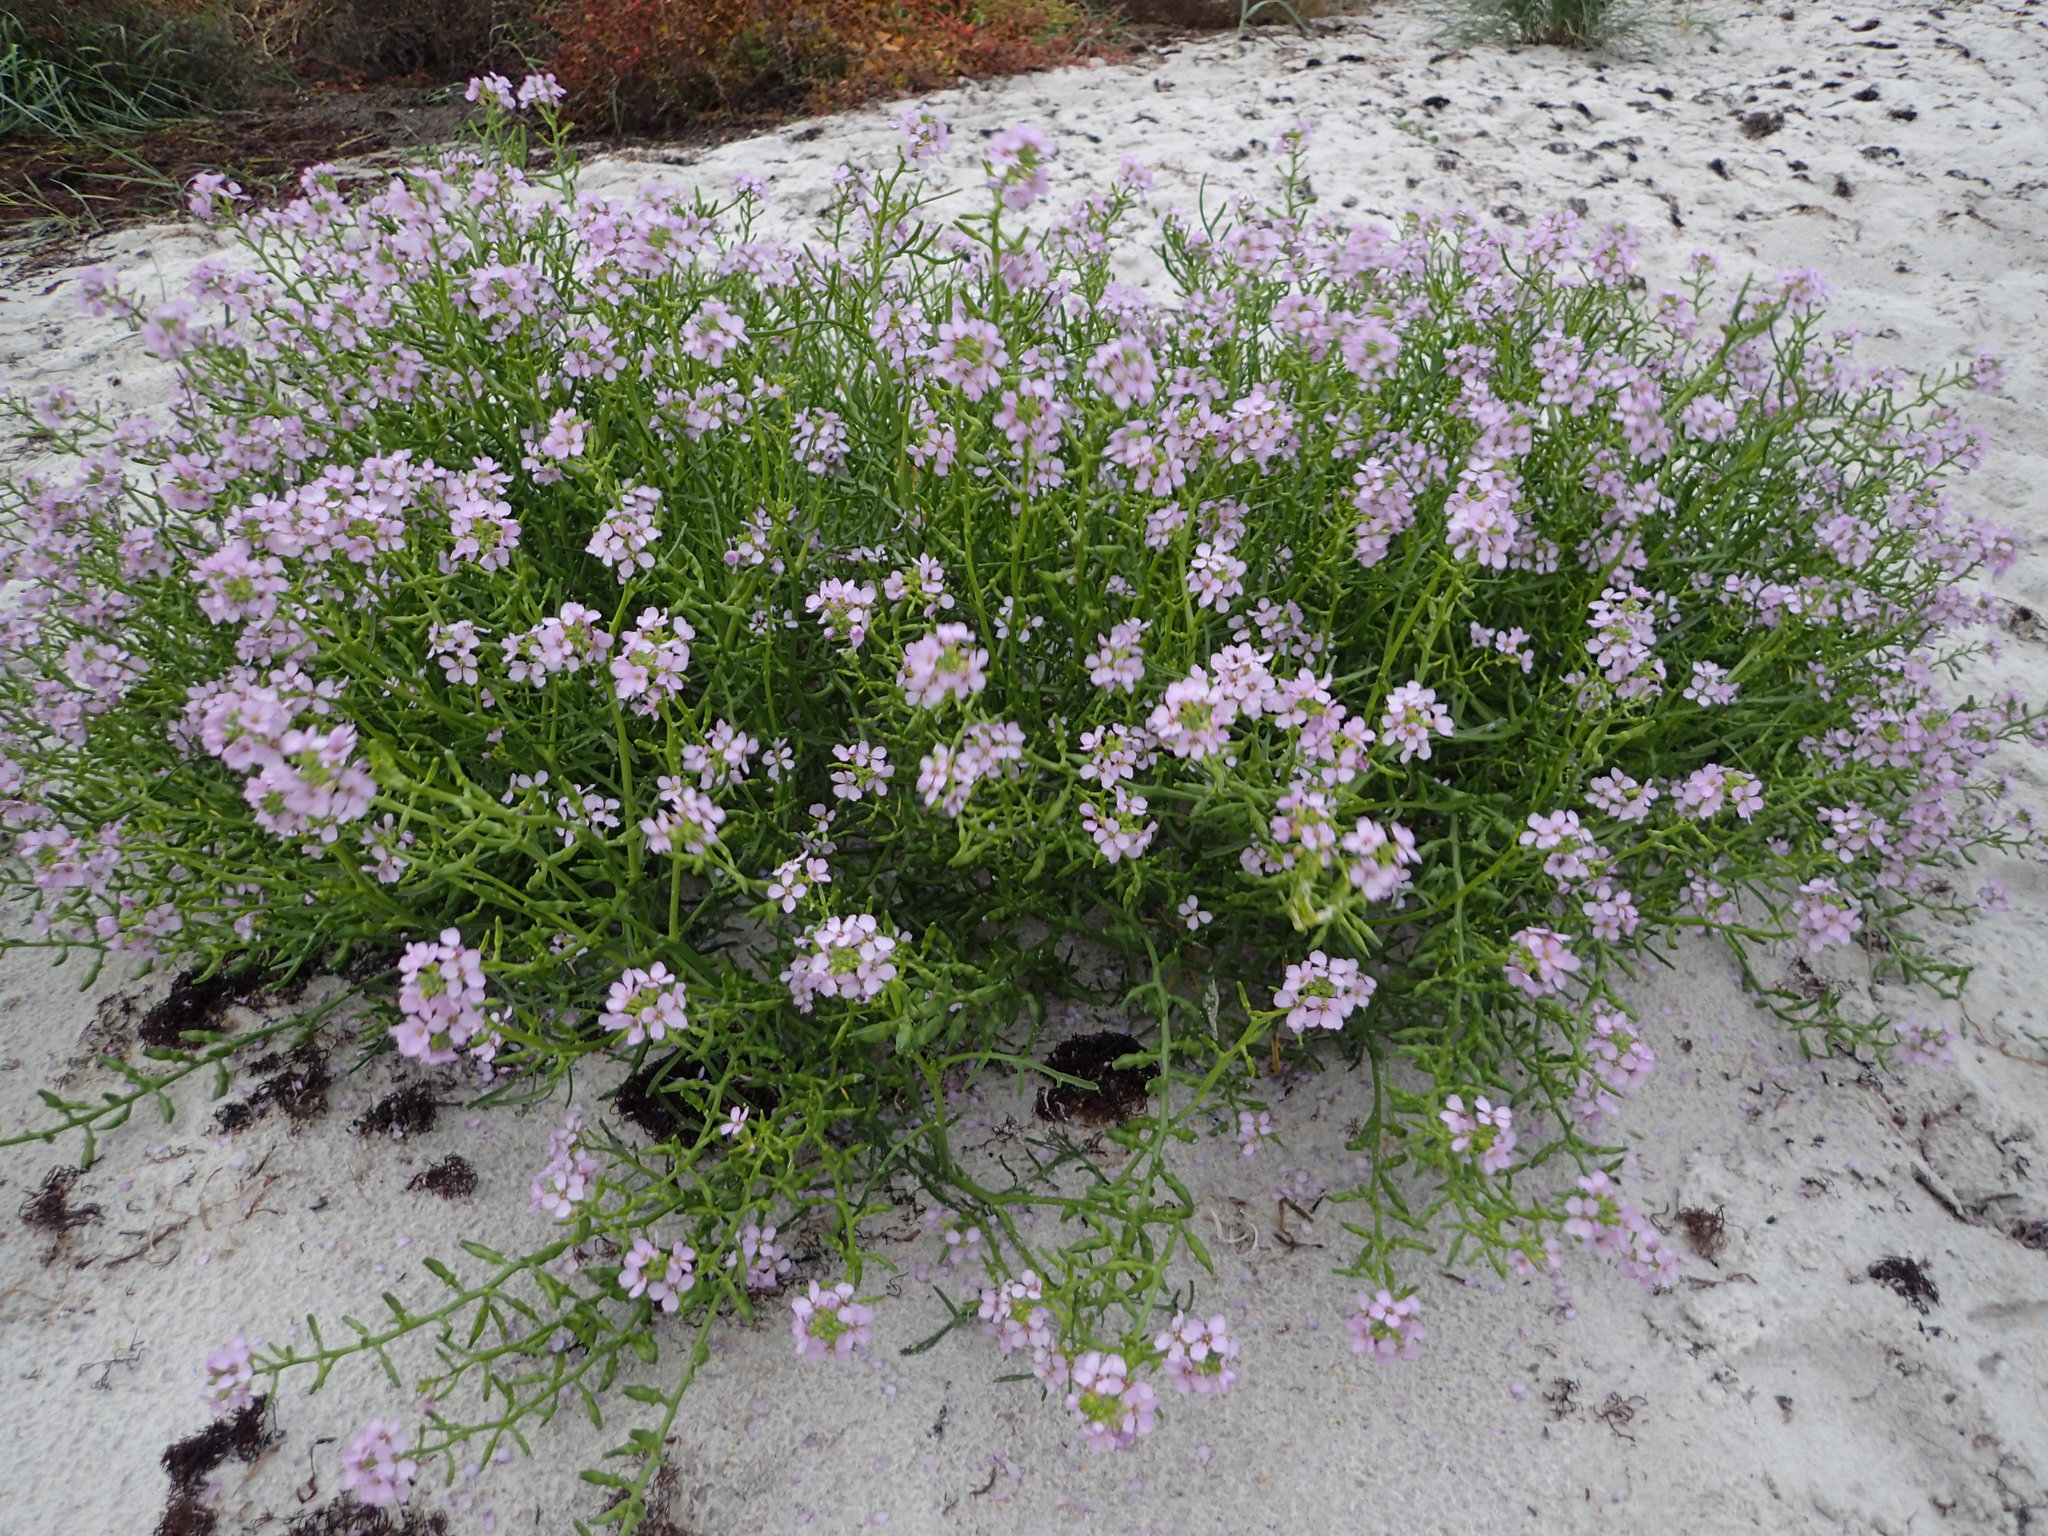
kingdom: Plantae
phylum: Tracheophyta
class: Magnoliopsida
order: Brassicales
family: Brassicaceae
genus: Cakile
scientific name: Cakile maritima
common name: Sea rocket
